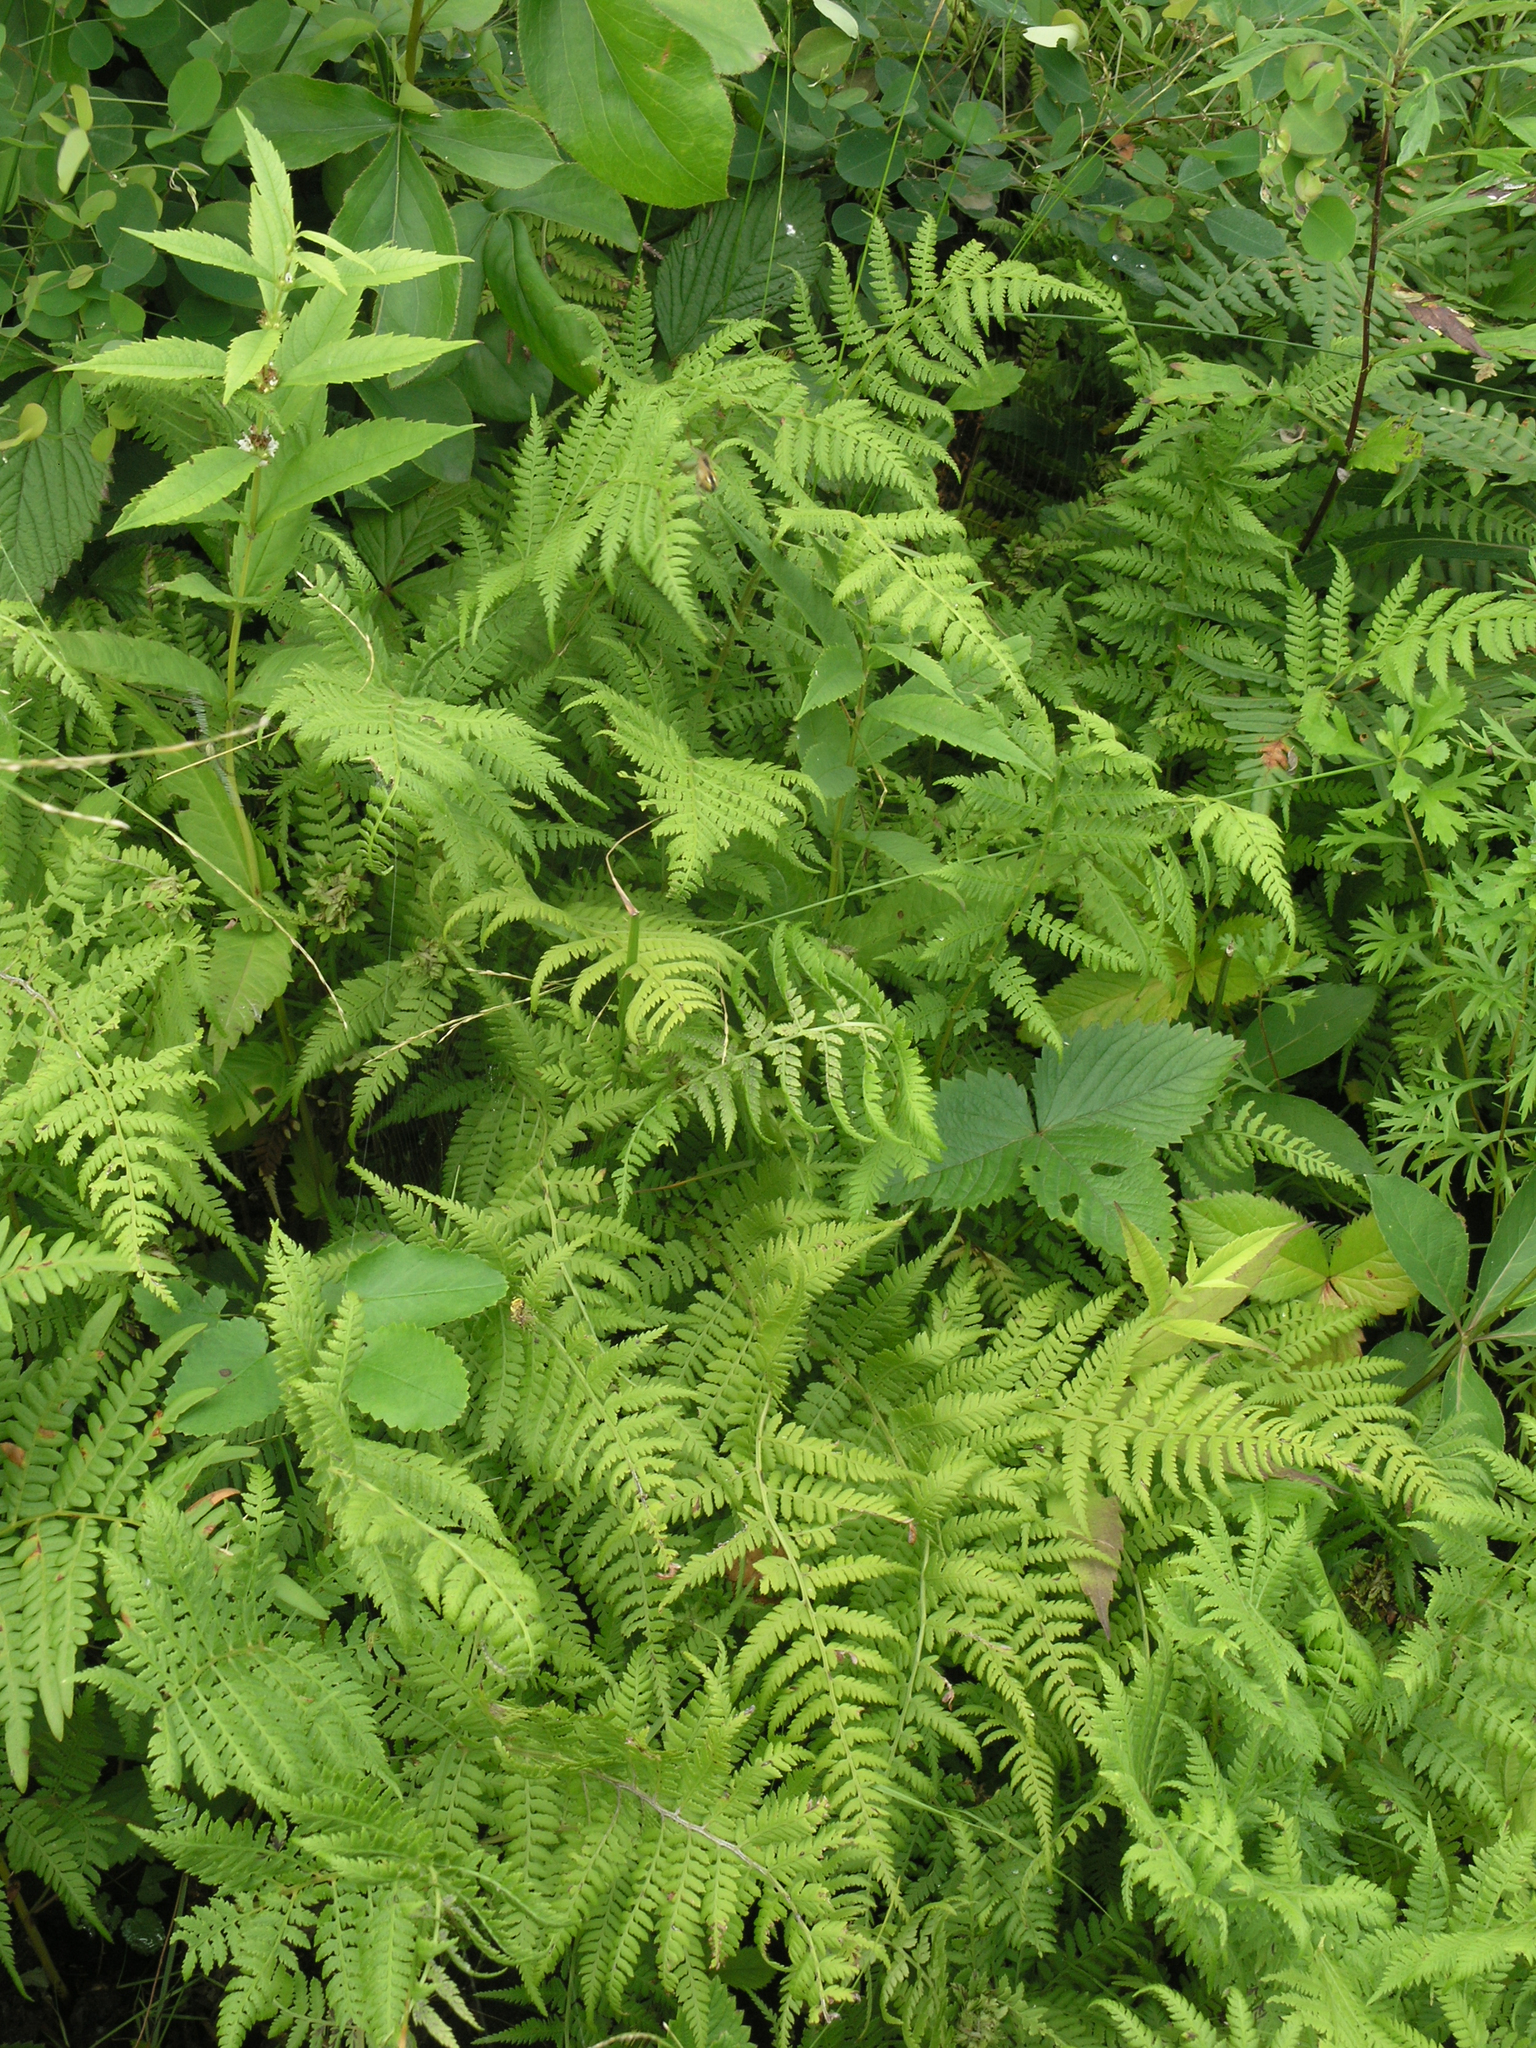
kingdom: Plantae
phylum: Tracheophyta
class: Polypodiopsida
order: Polypodiales
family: Athyriaceae
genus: Athyrium
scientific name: Athyrium yokoscense
